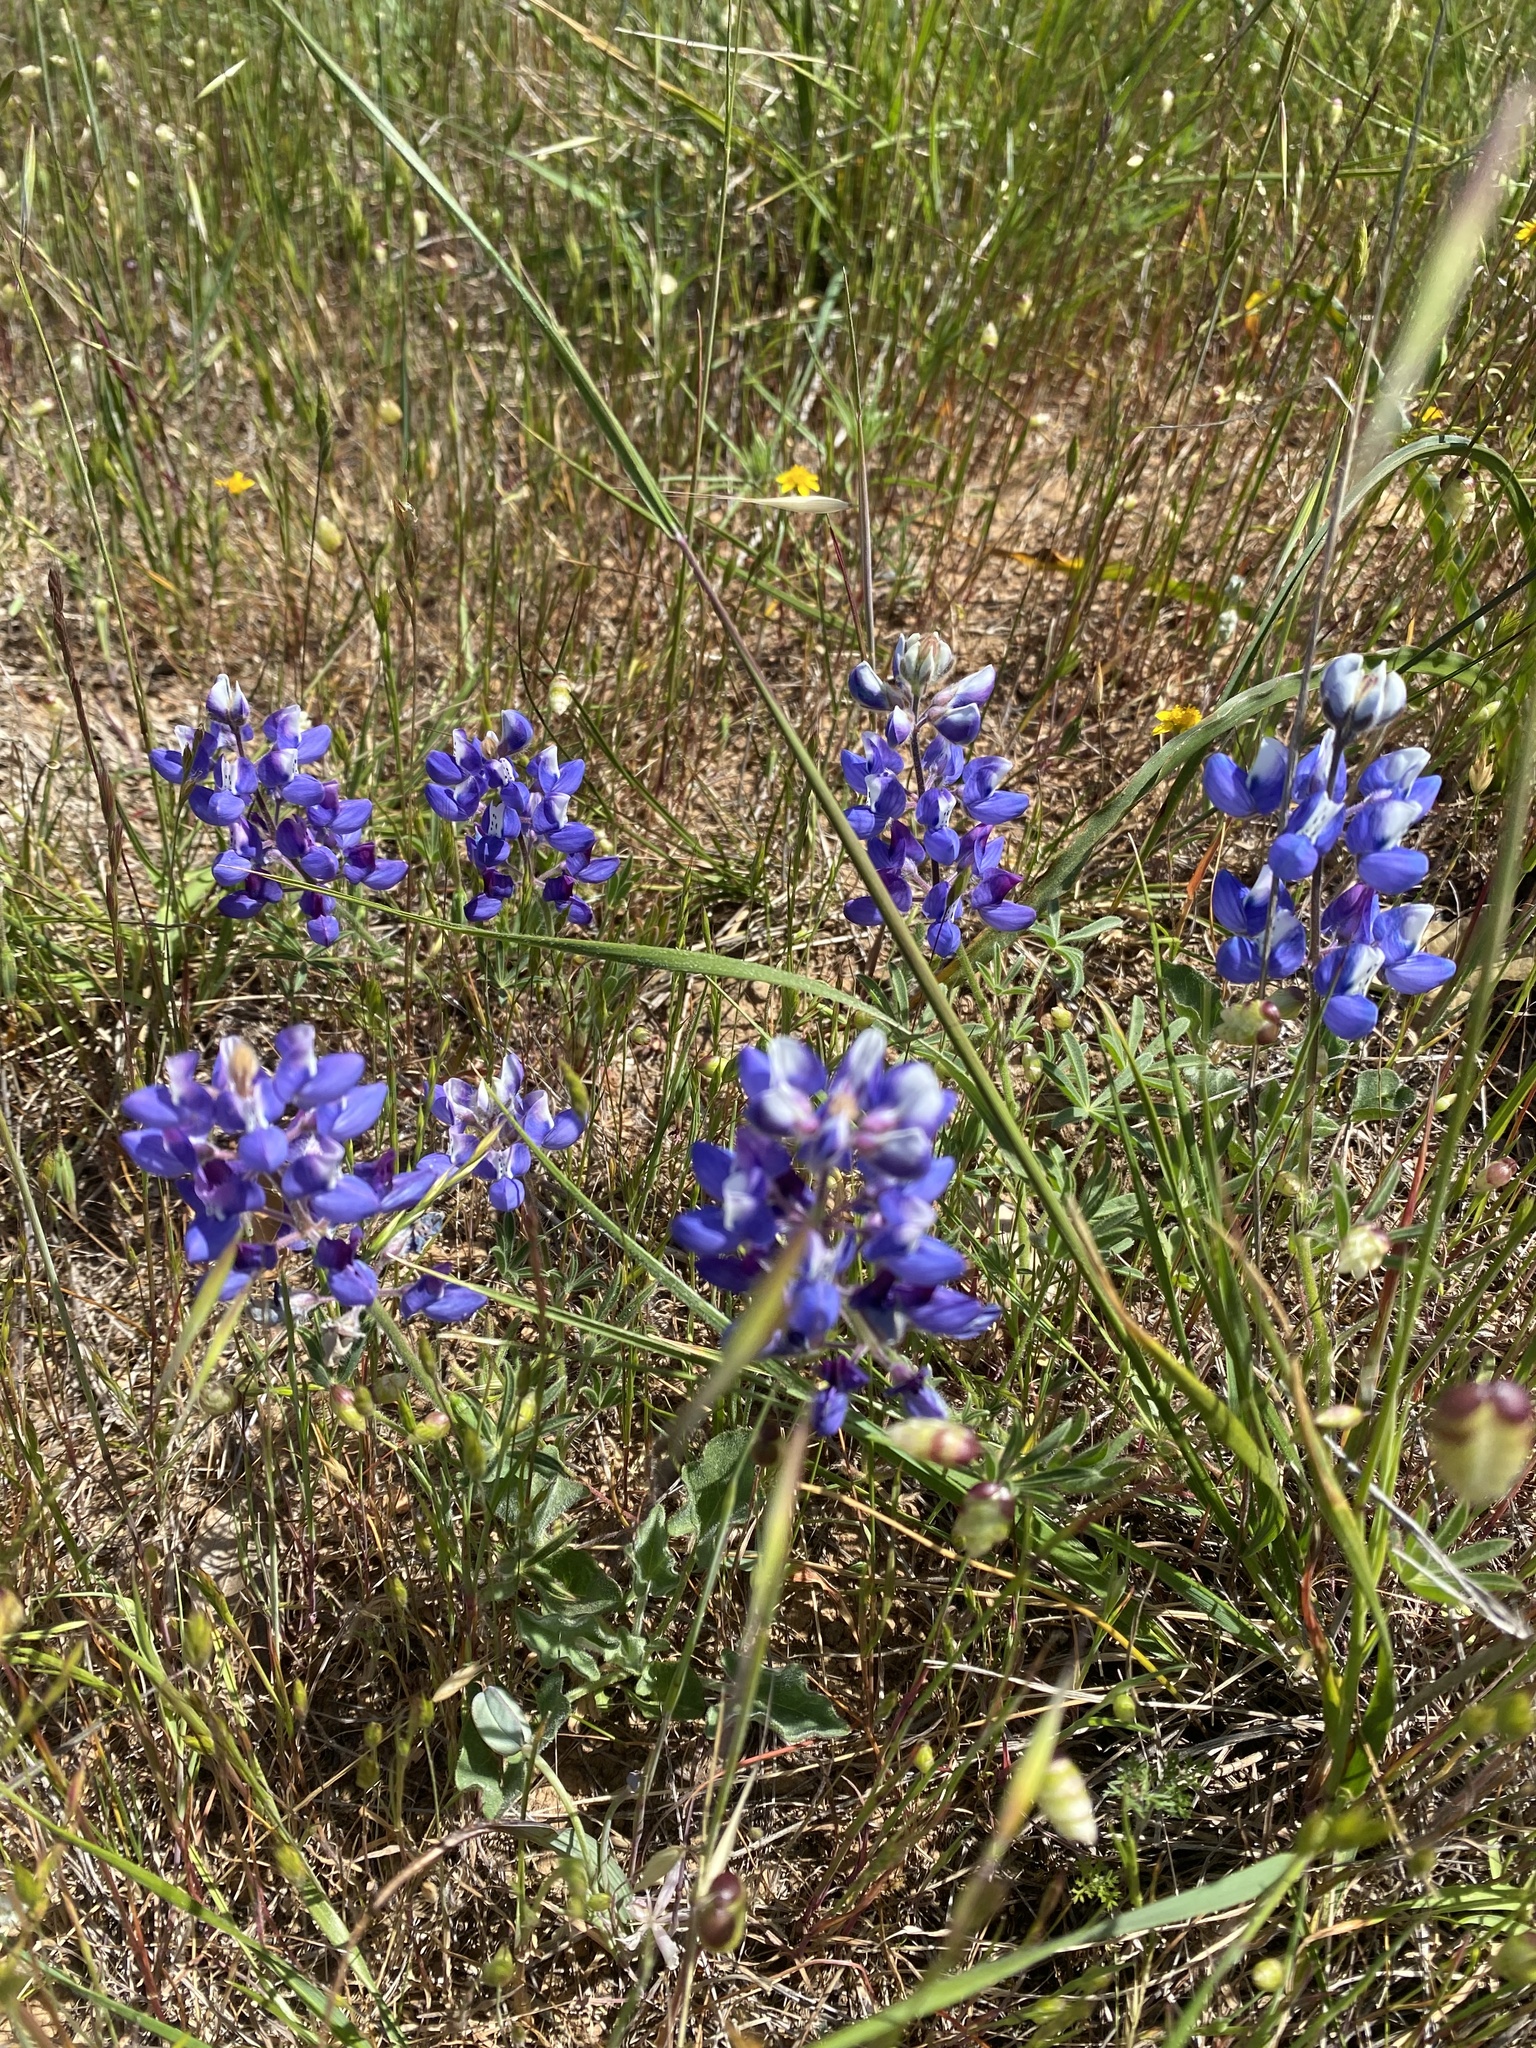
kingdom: Plantae
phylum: Tracheophyta
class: Magnoliopsida
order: Fabales
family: Fabaceae
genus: Lupinus
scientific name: Lupinus nanus
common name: Orean blue lupin
